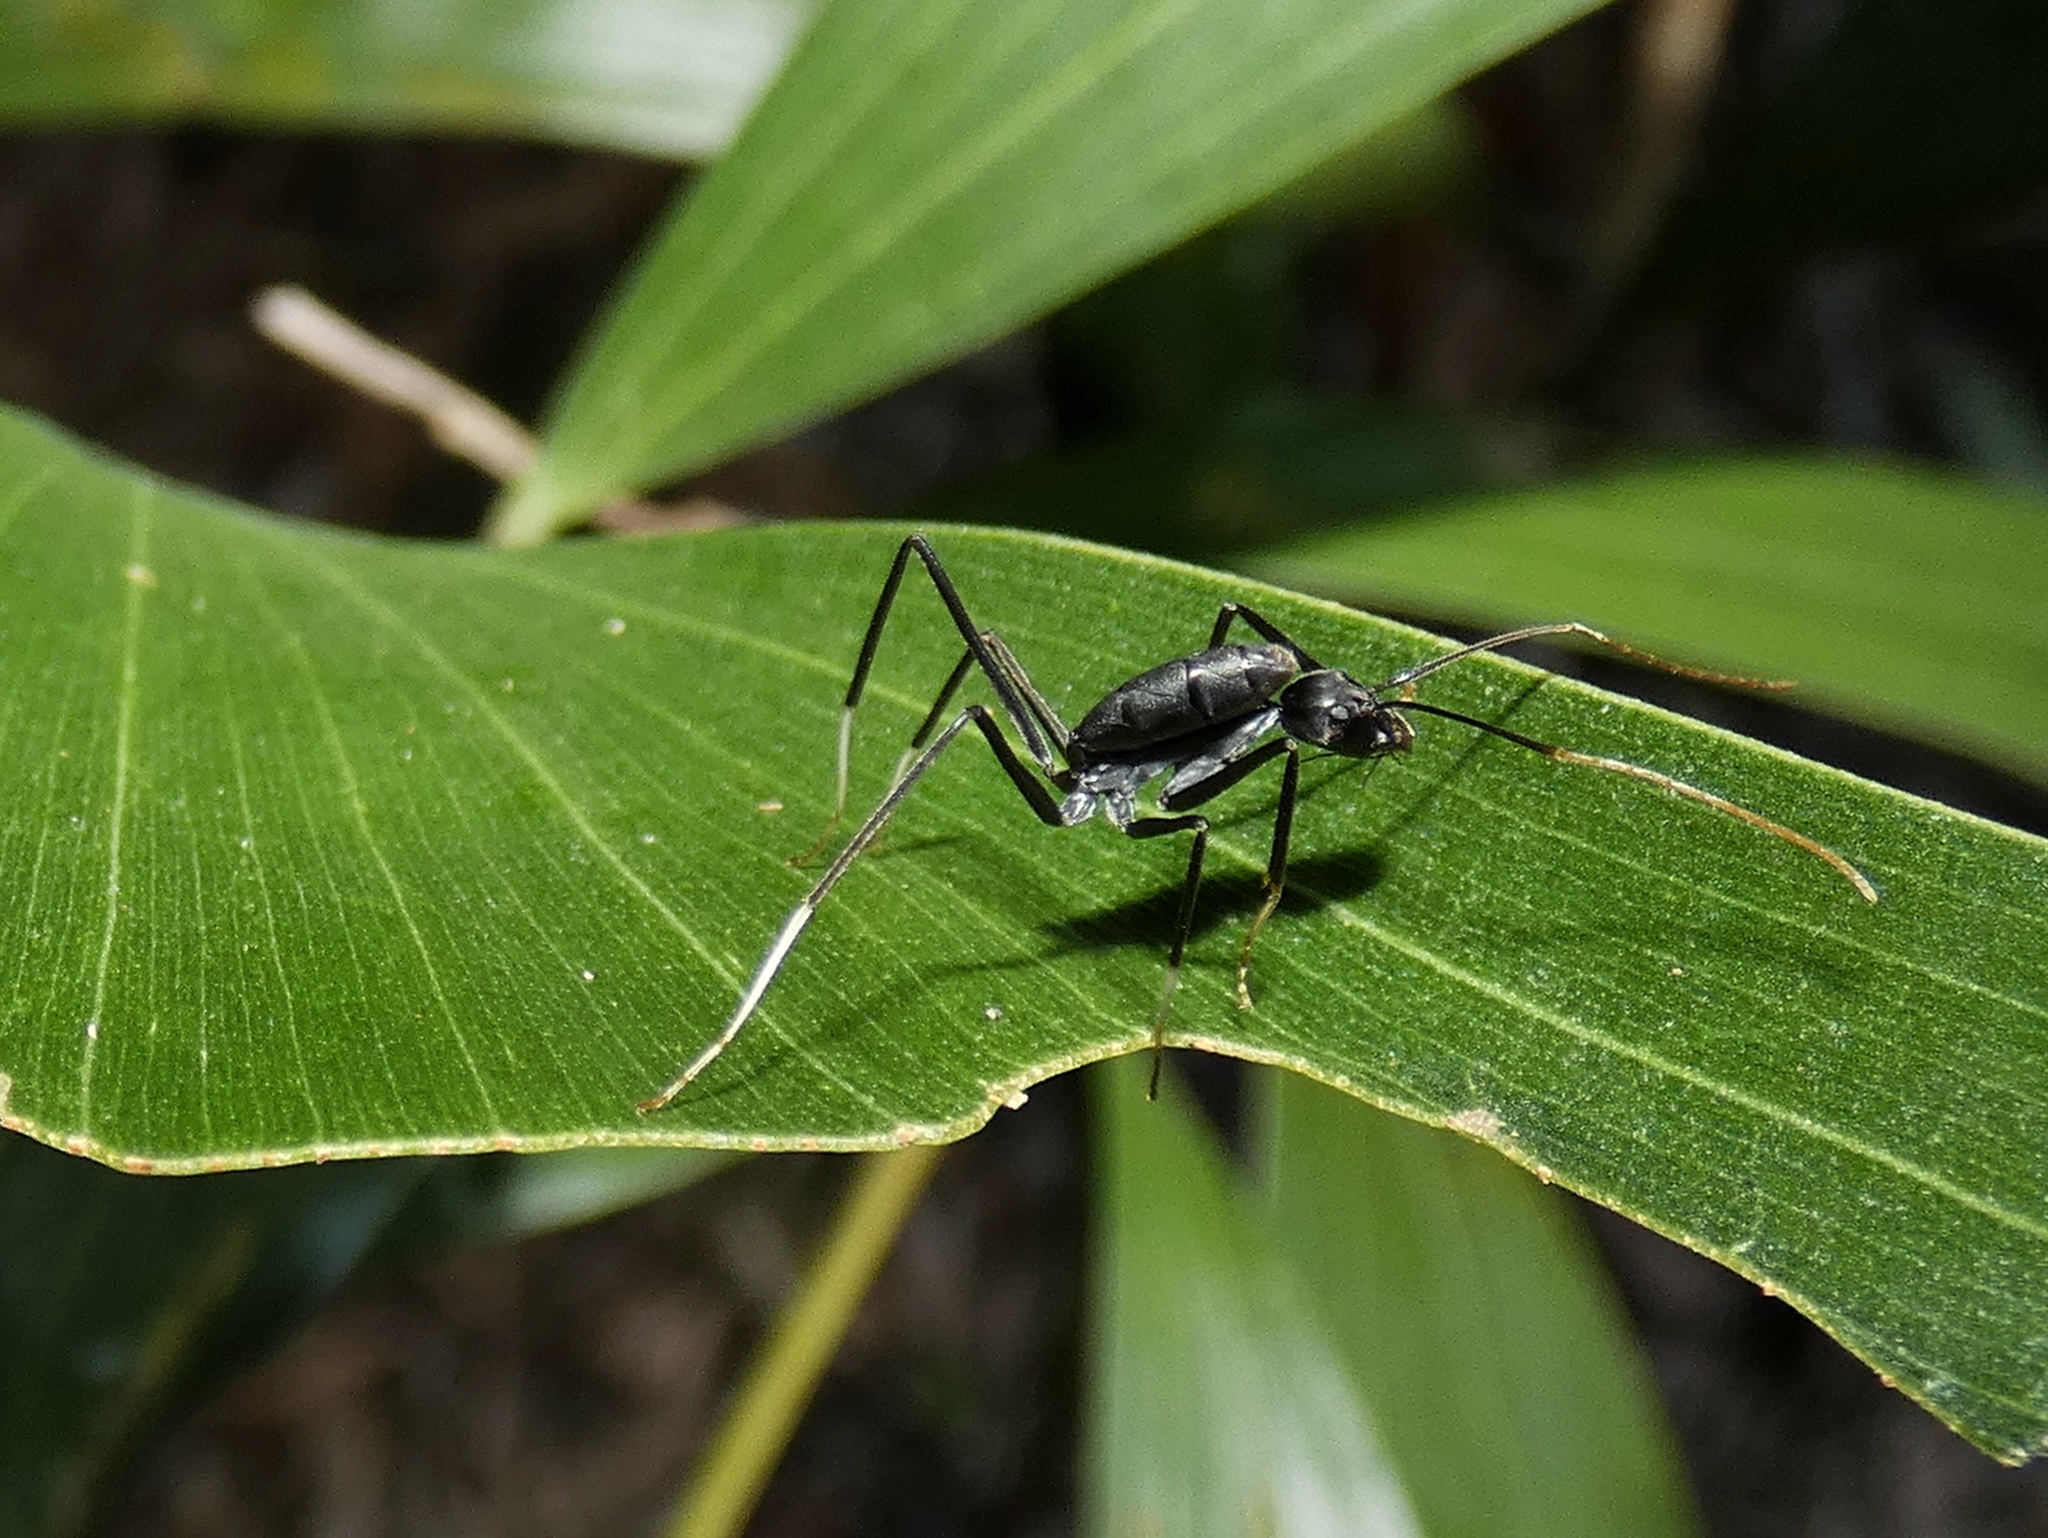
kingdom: Animalia
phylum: Arthropoda
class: Insecta
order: Hymenoptera
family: Formicidae
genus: Leptomyrmex
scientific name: Leptomyrmex unicolor
